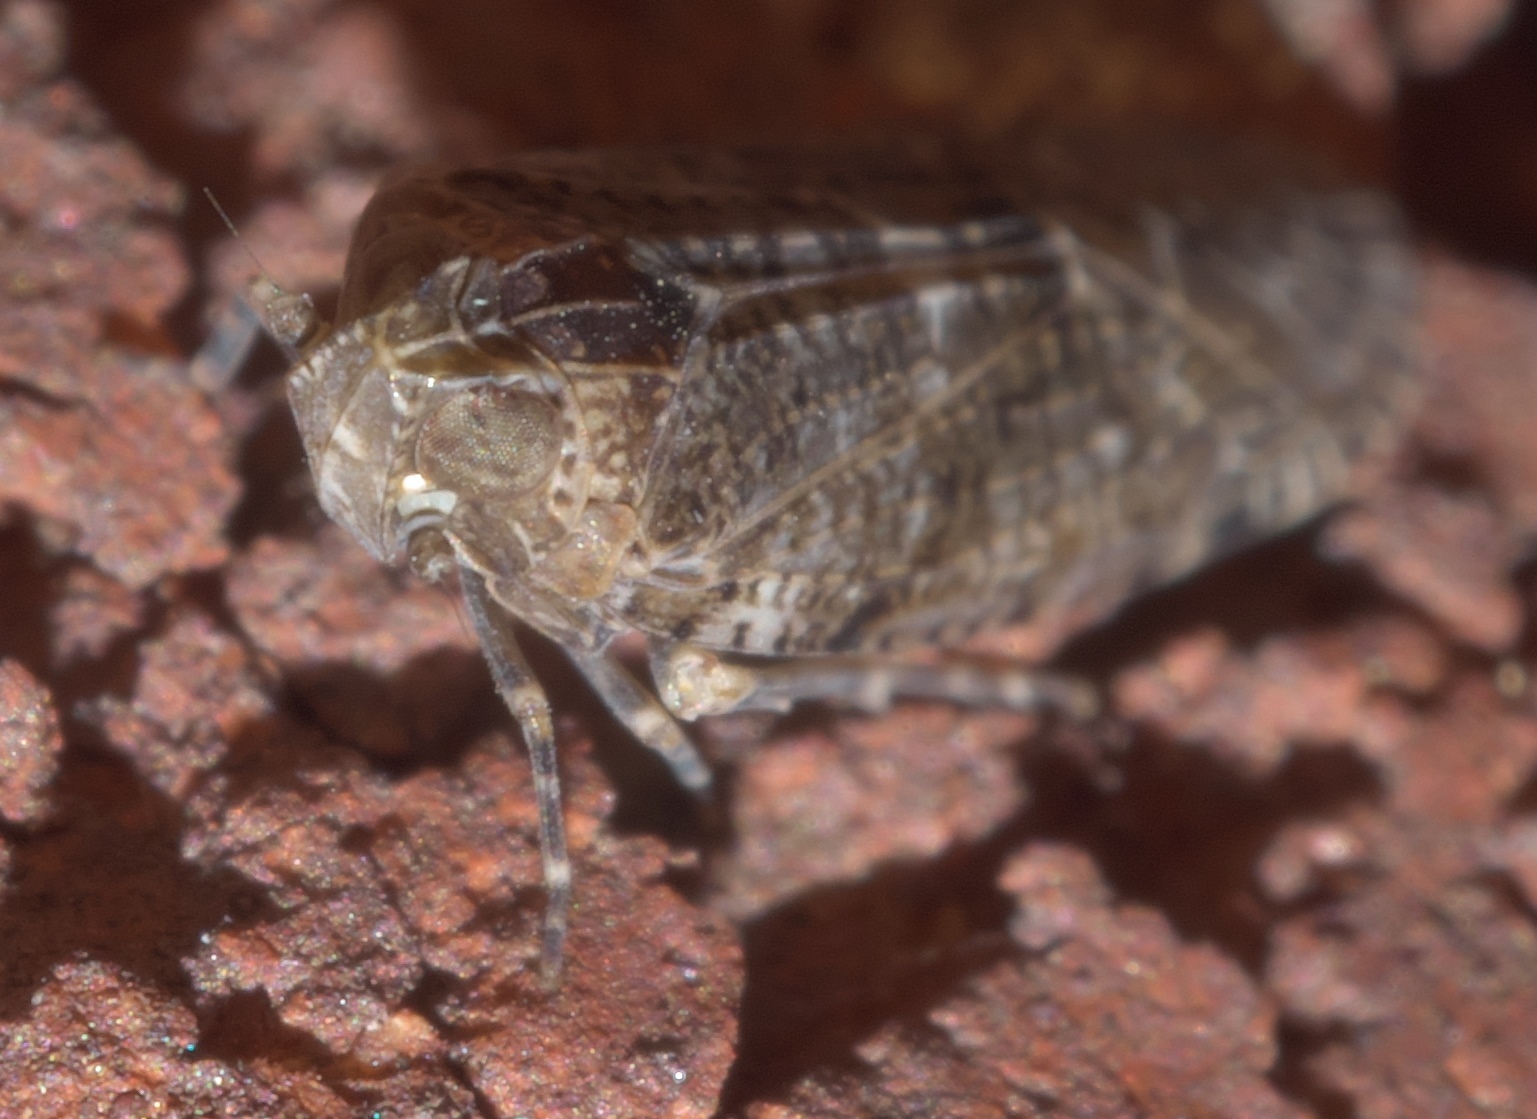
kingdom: Animalia
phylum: Arthropoda
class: Insecta
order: Hemiptera
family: Achilidae
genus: Catonia
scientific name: Catonia carolina
